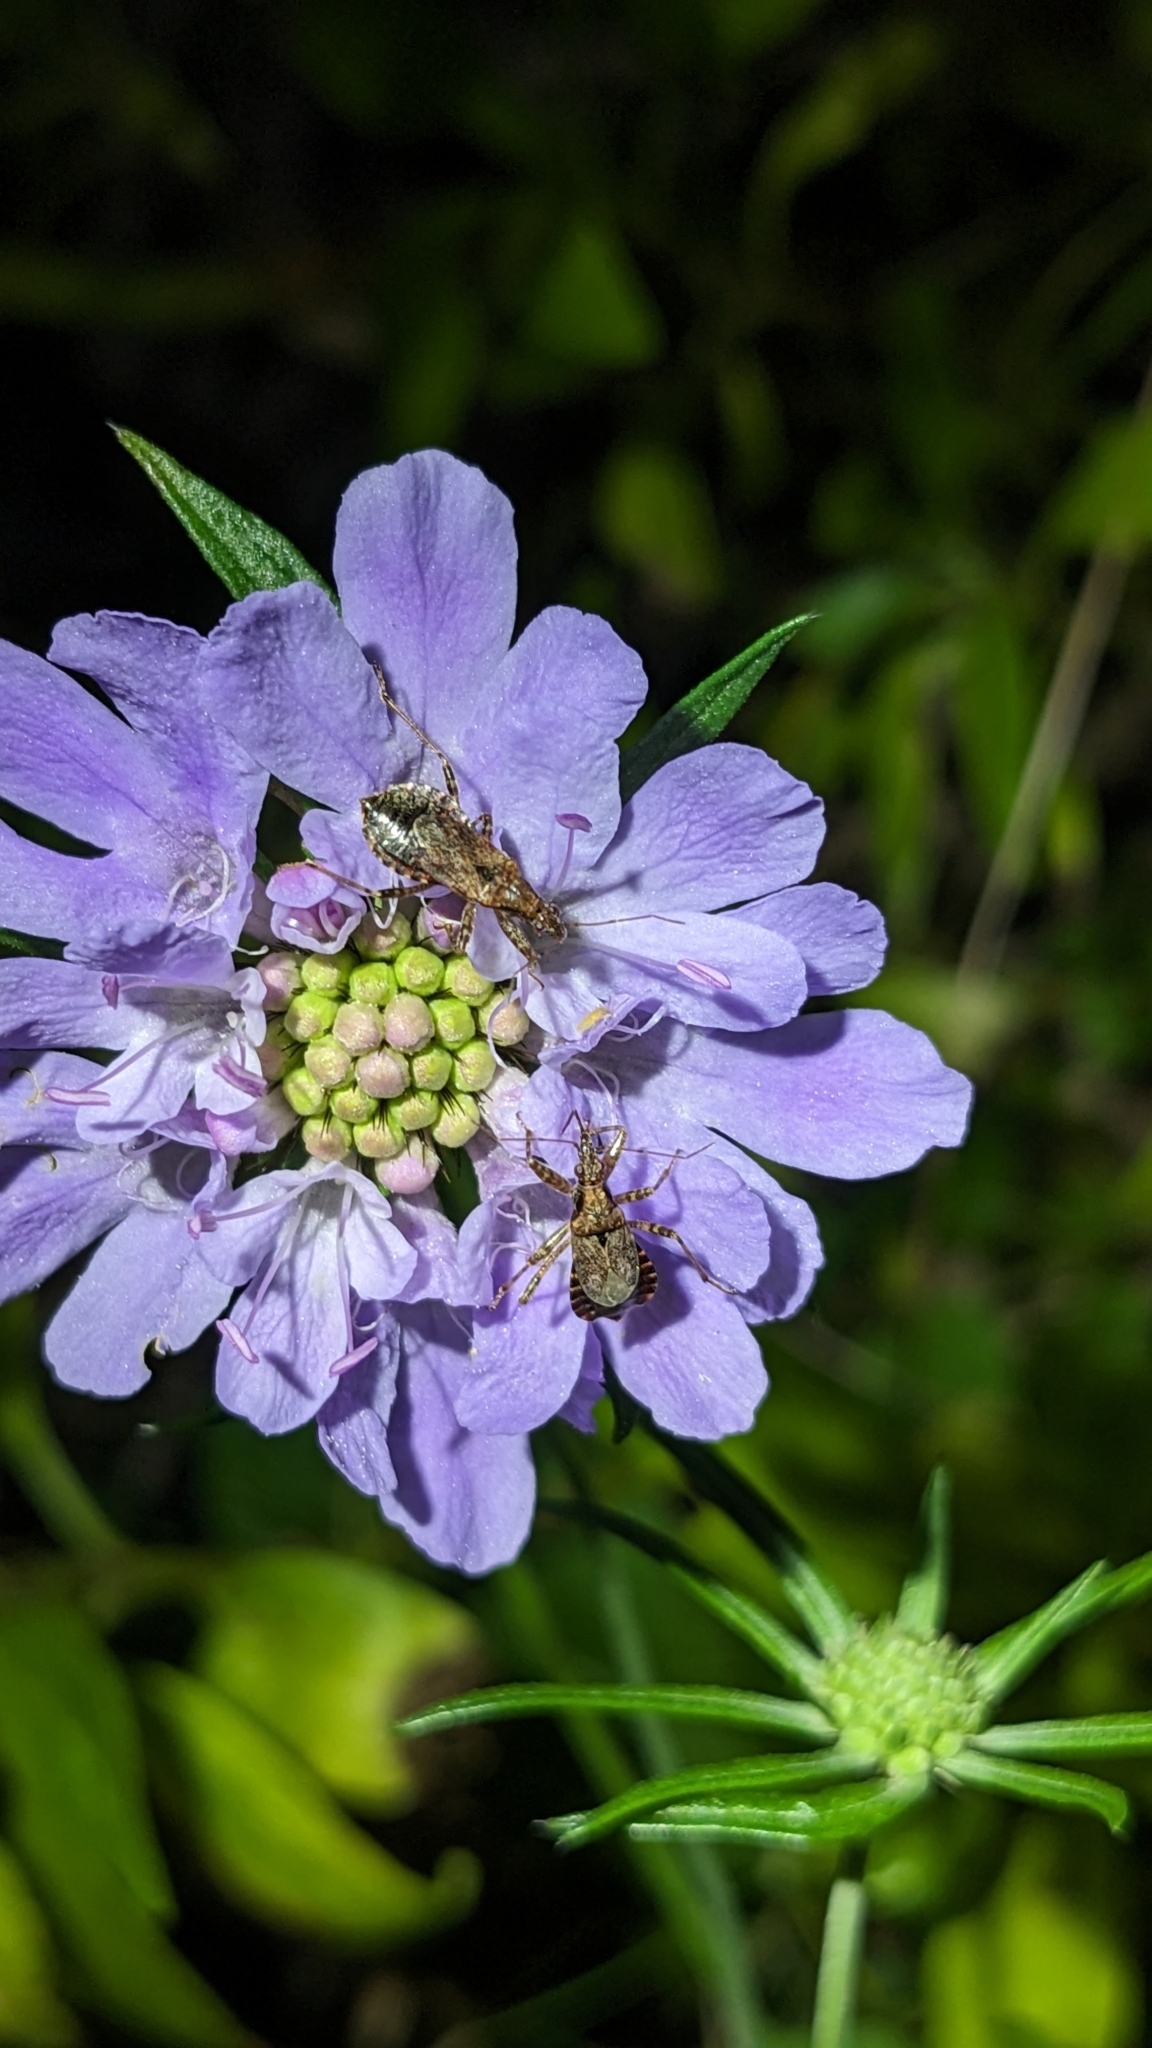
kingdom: Animalia
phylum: Arthropoda
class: Insecta
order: Hemiptera
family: Nabidae
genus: Himacerus
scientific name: Himacerus mirmicoides
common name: Ant damsel bug
